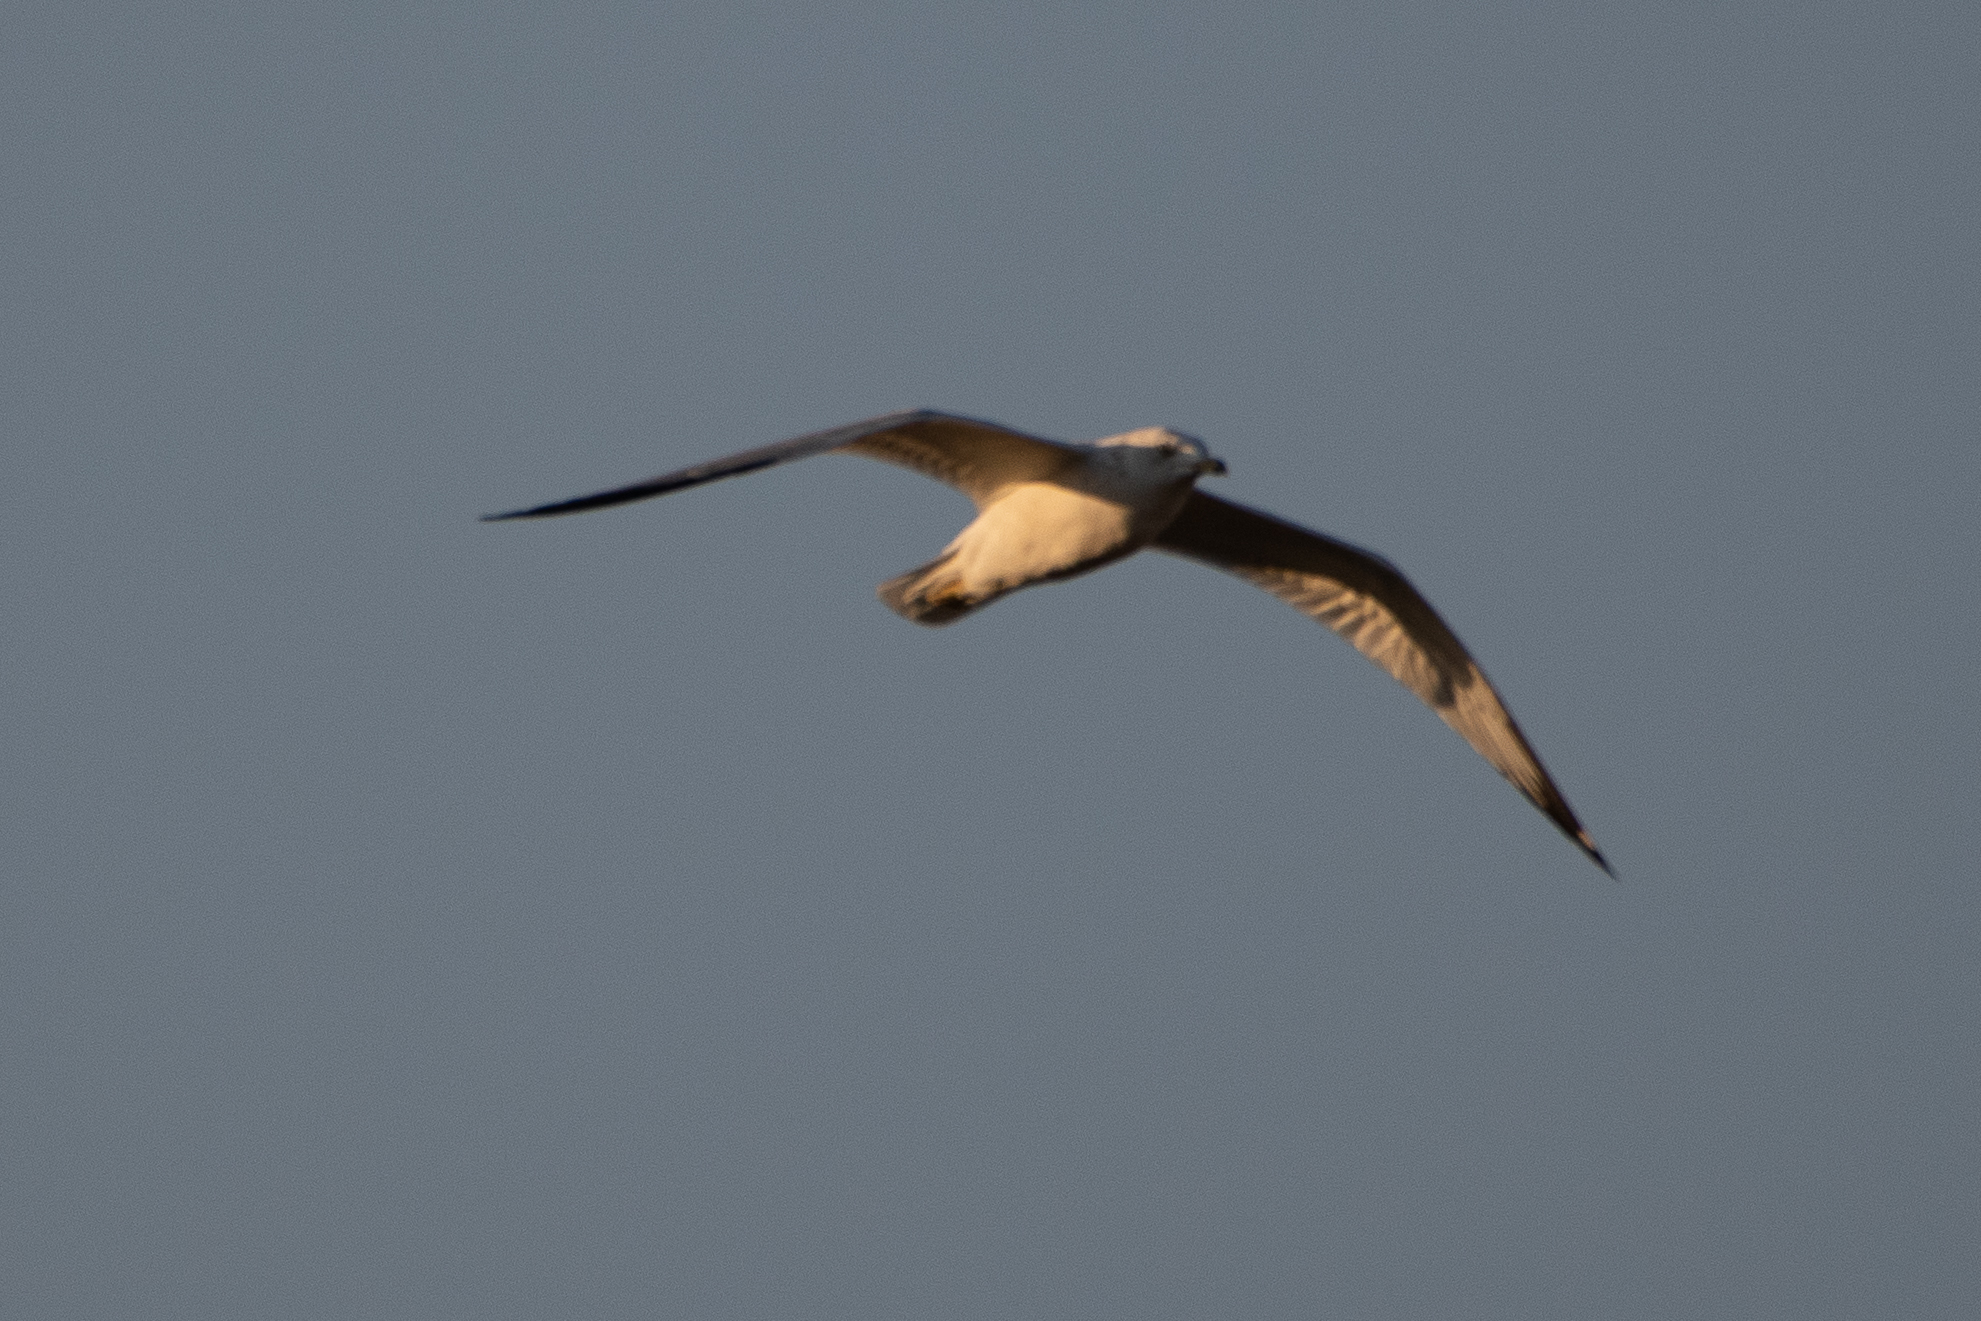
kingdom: Animalia
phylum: Chordata
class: Aves
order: Charadriiformes
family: Laridae
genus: Larus
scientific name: Larus delawarensis
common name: Ring-billed gull
